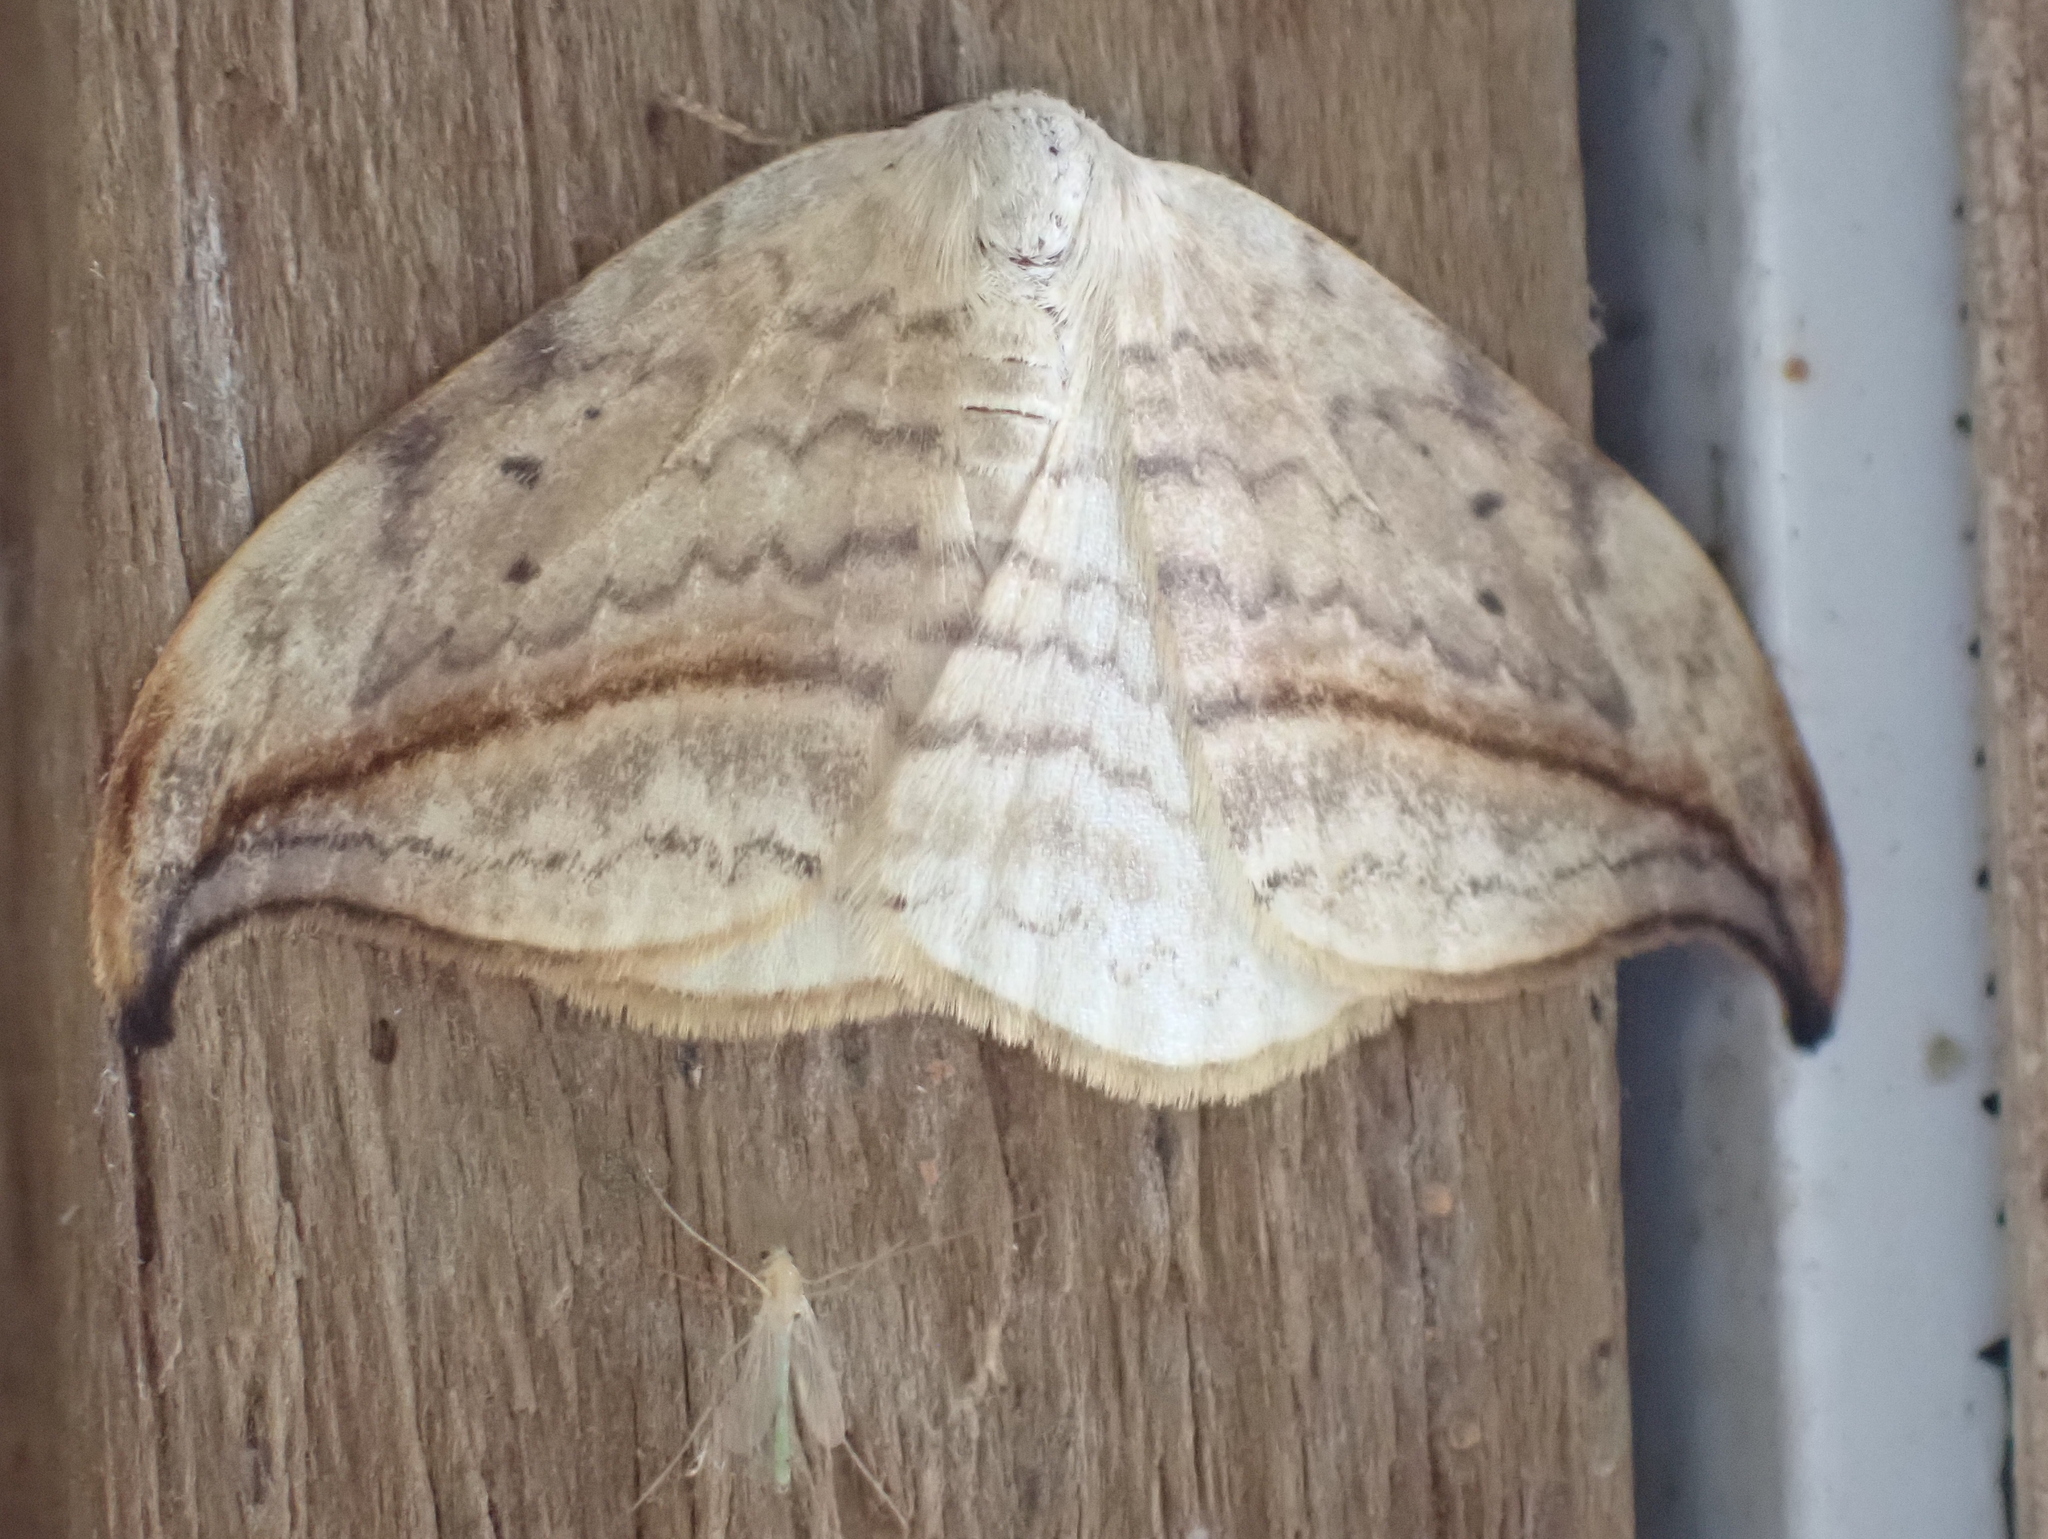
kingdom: Animalia
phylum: Arthropoda
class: Insecta
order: Lepidoptera
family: Drepanidae
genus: Drepana
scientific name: Drepana arcuata
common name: Arched hooktip moth
